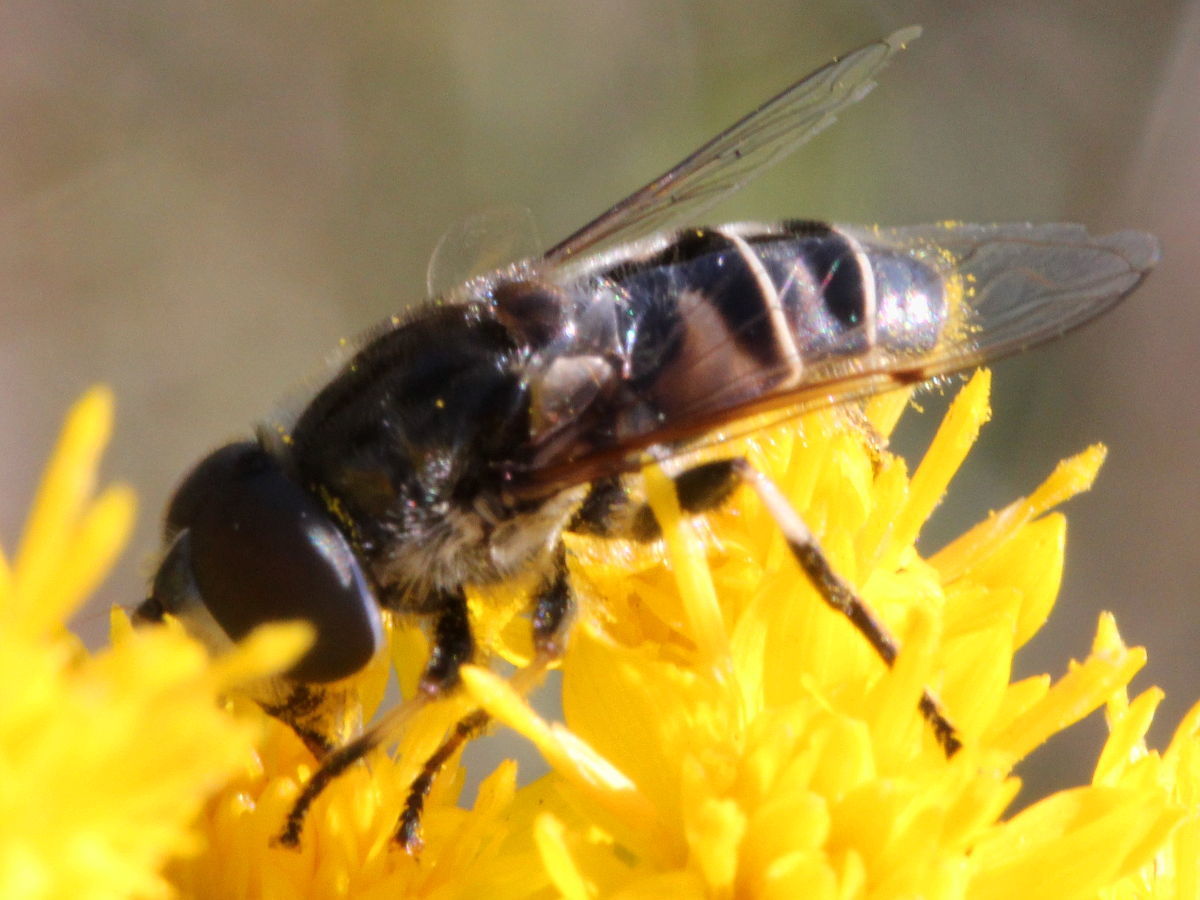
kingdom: Animalia
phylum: Arthropoda
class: Insecta
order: Diptera
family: Syrphidae
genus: Eristalis
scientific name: Eristalis dimidiata
